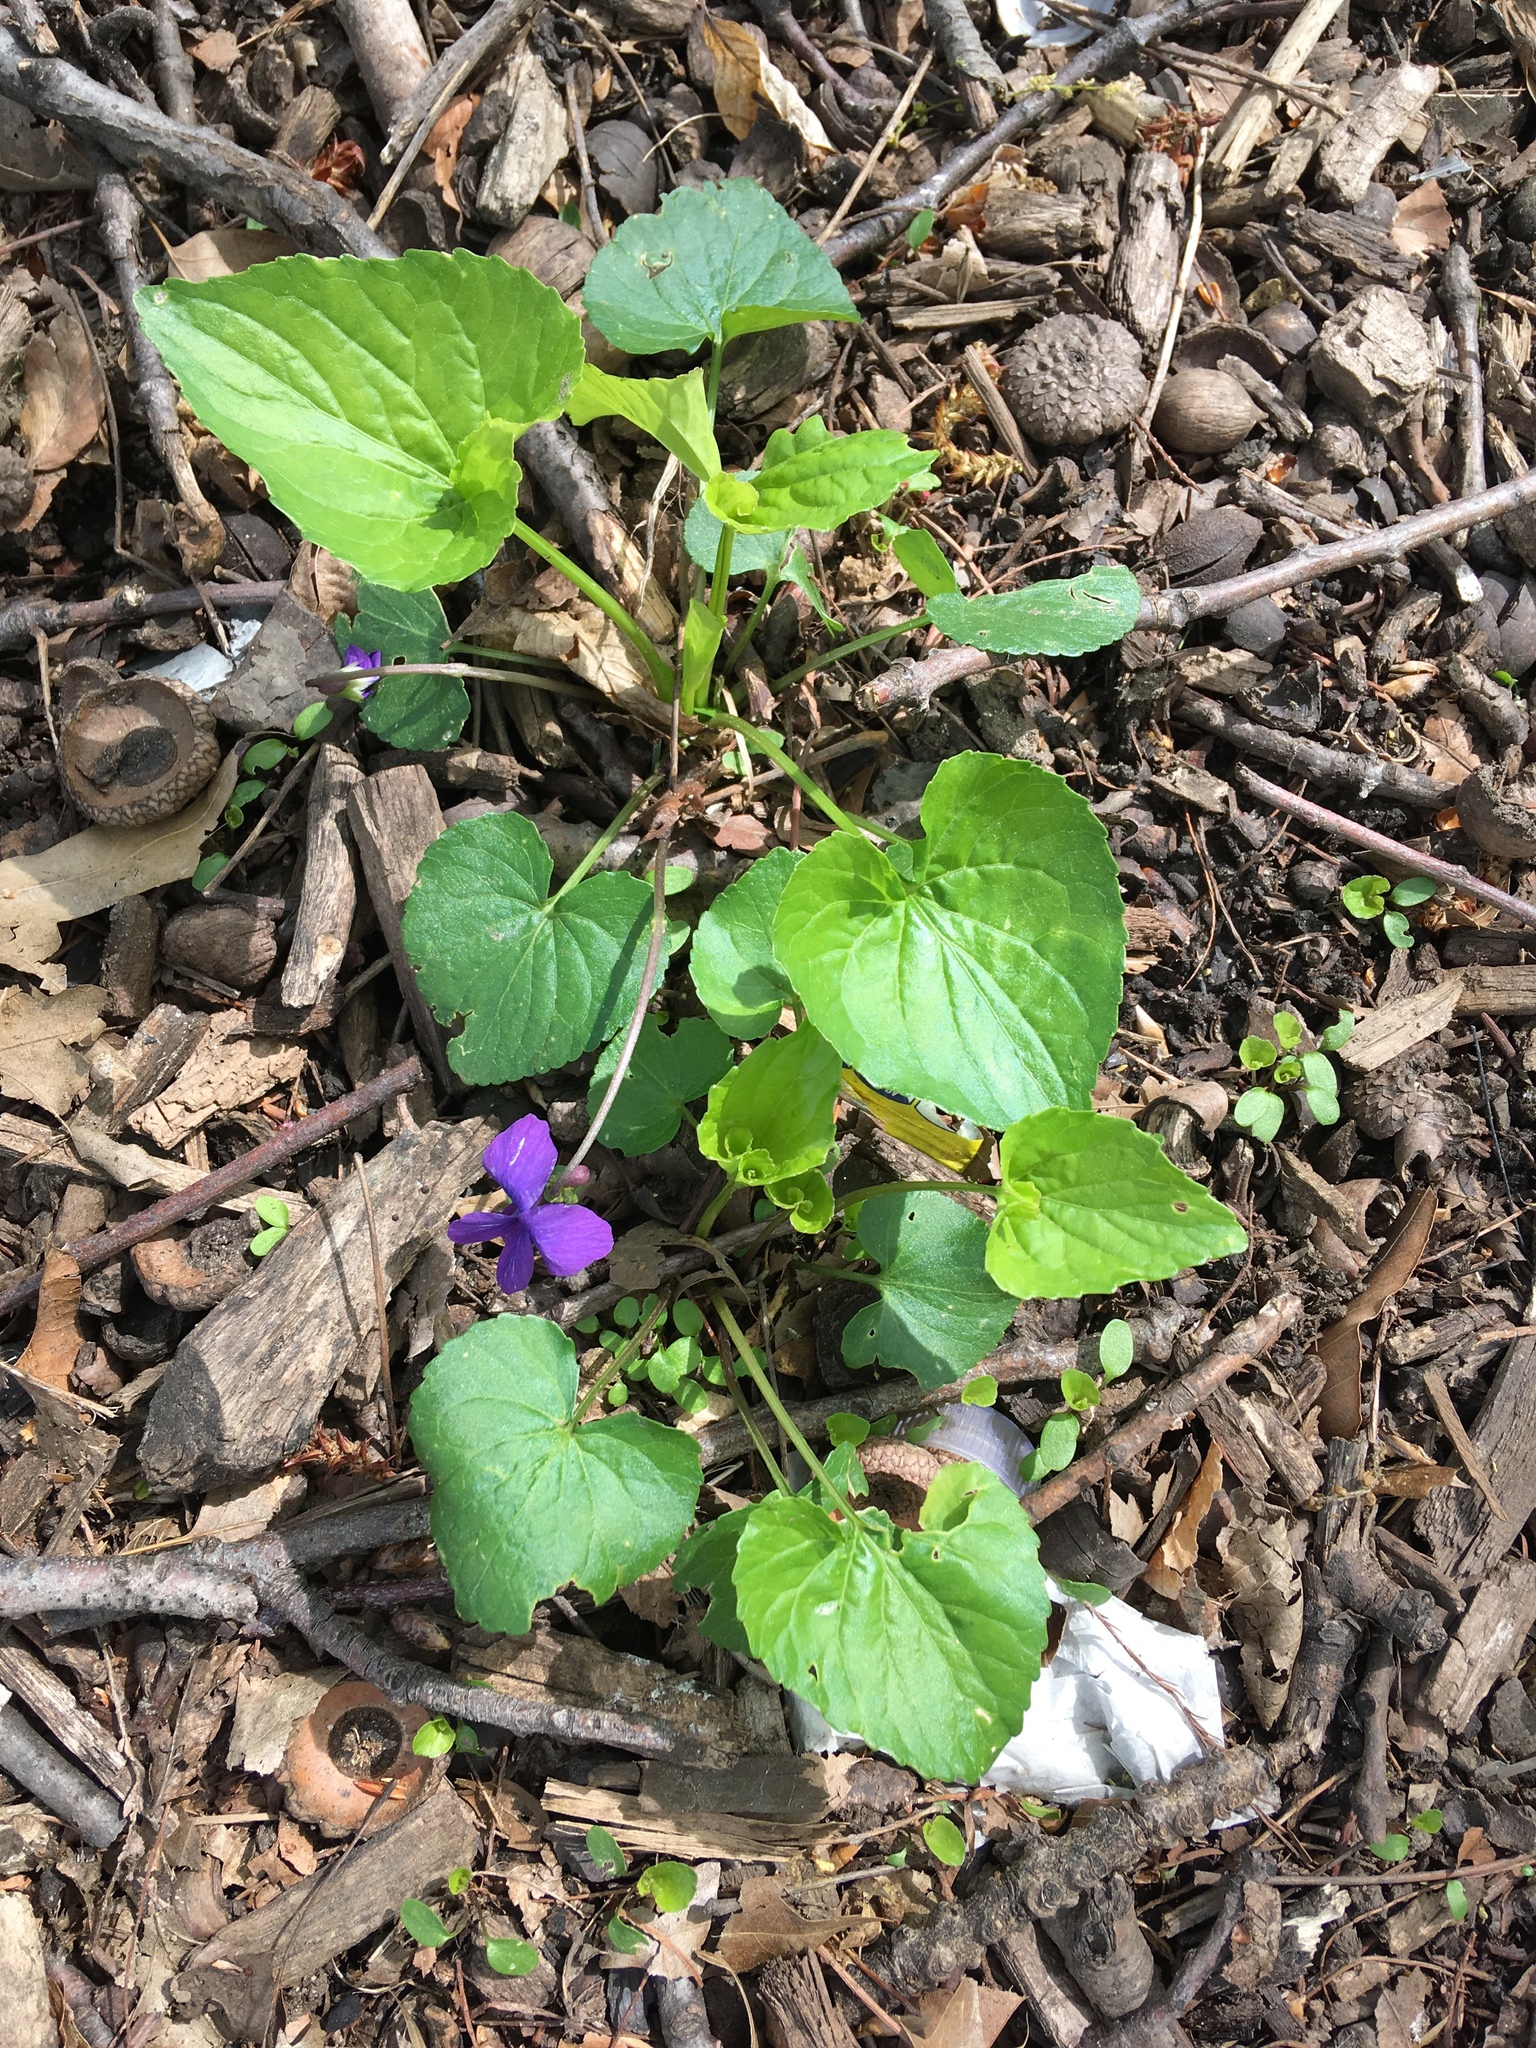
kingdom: Plantae
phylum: Tracheophyta
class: Magnoliopsida
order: Malpighiales
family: Violaceae
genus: Viola
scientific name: Viola sororia
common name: Dooryard violet
